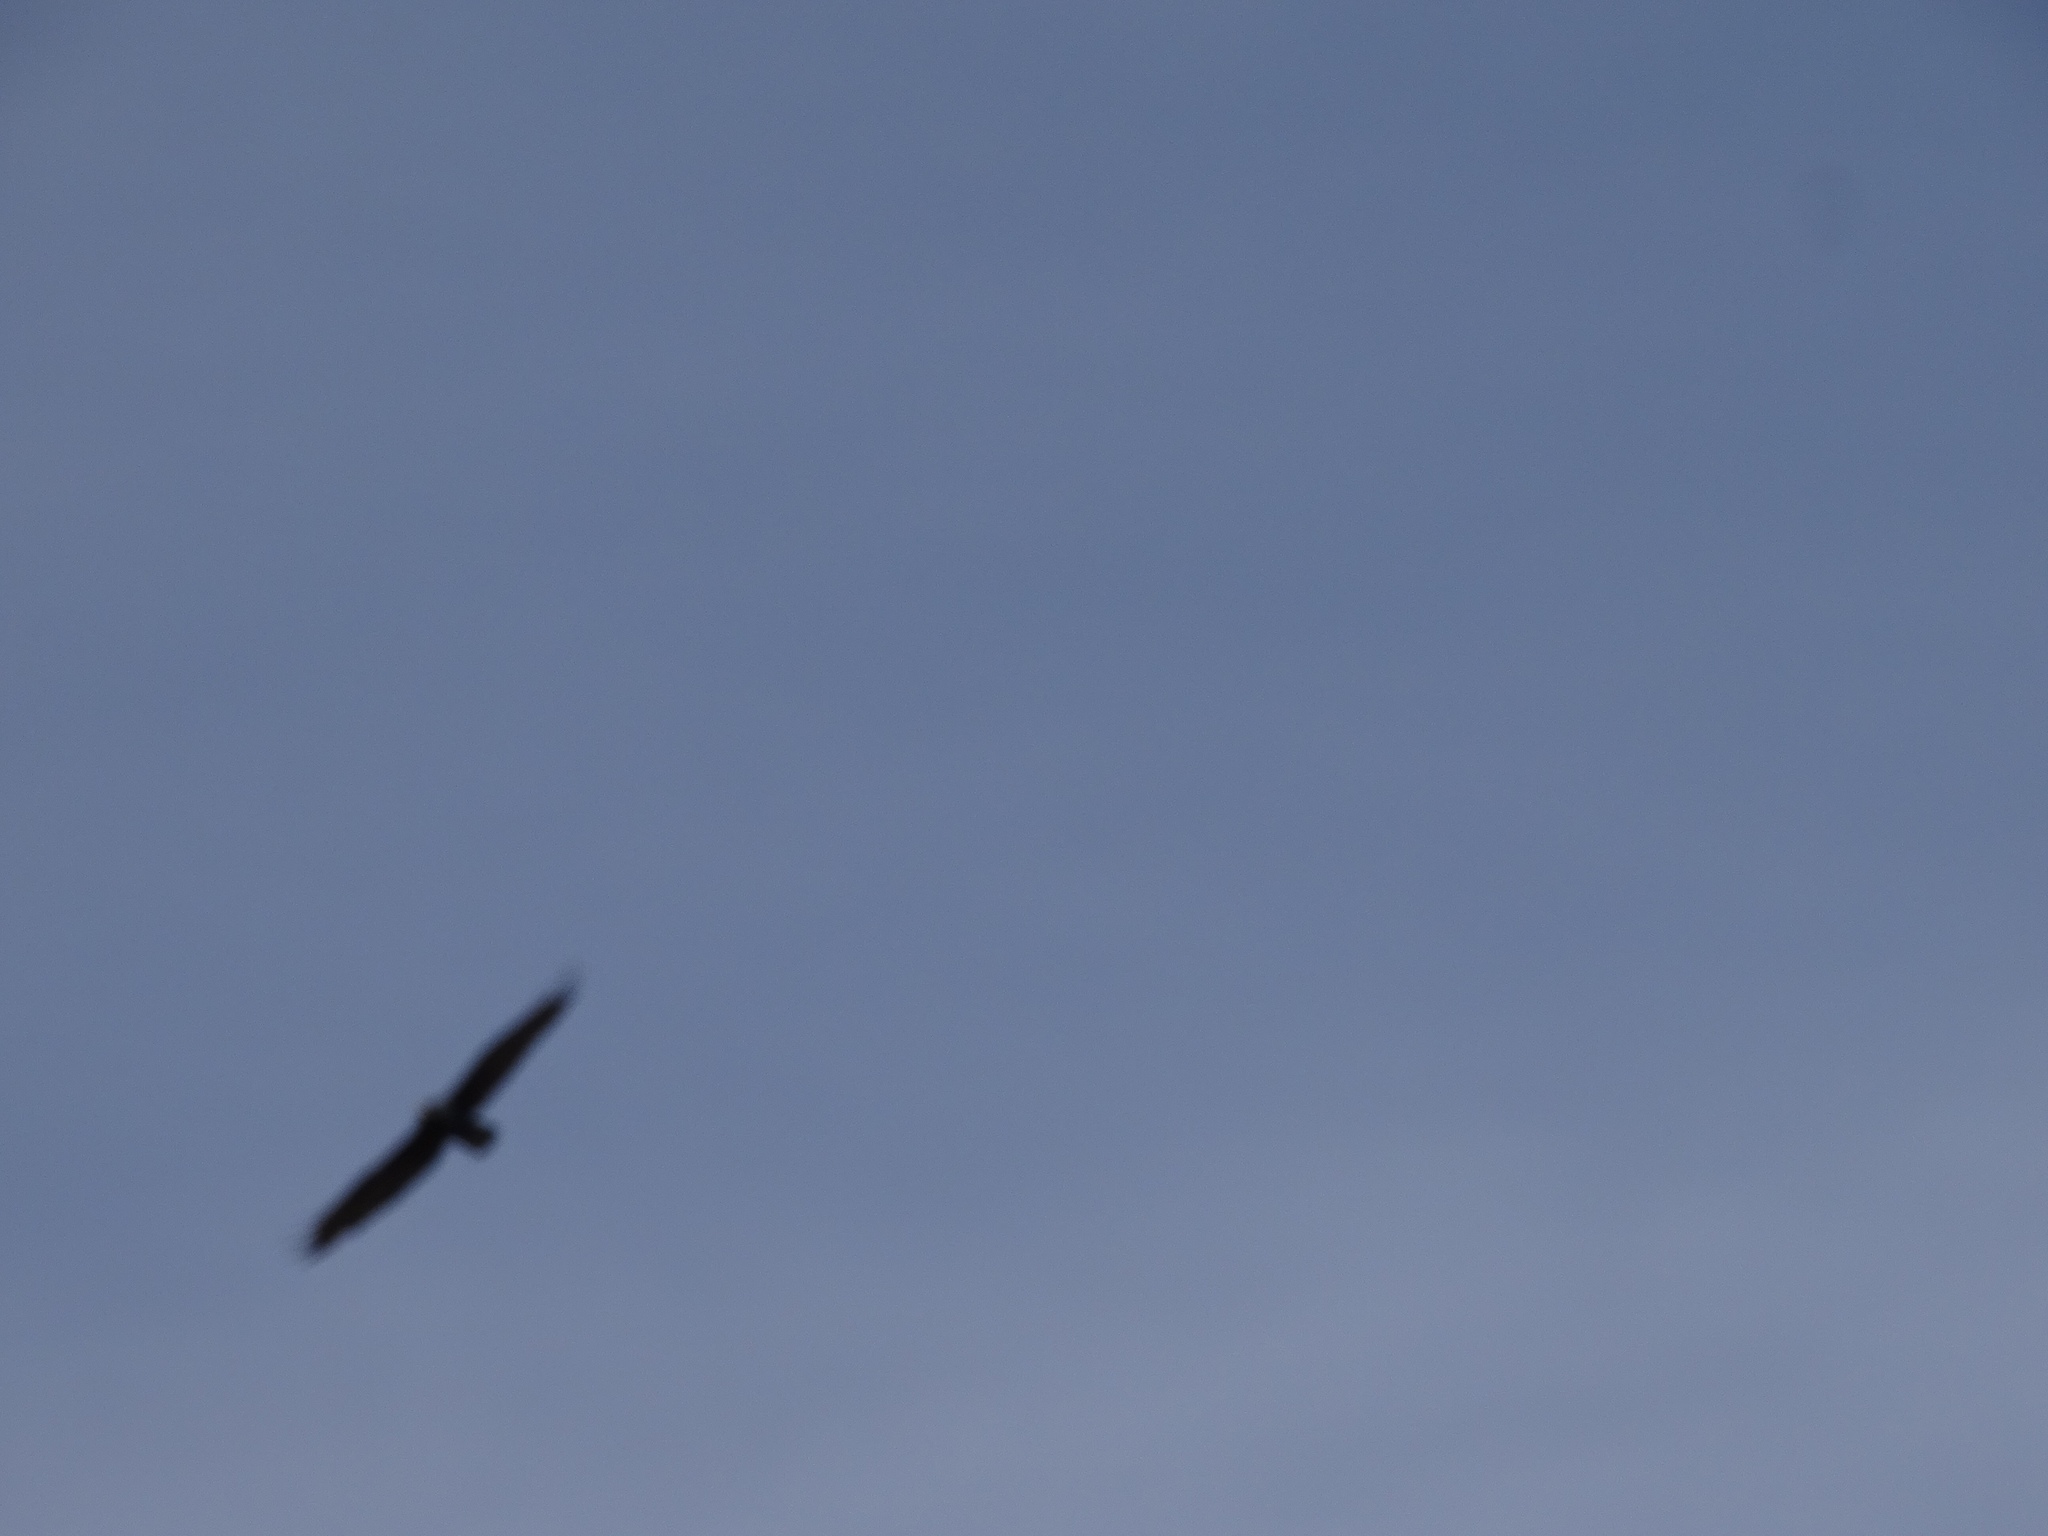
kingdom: Animalia
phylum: Chordata
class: Aves
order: Accipitriformes
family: Accipitridae
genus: Buteo
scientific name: Buteo albonotatus
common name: Zone-tailed hawk
